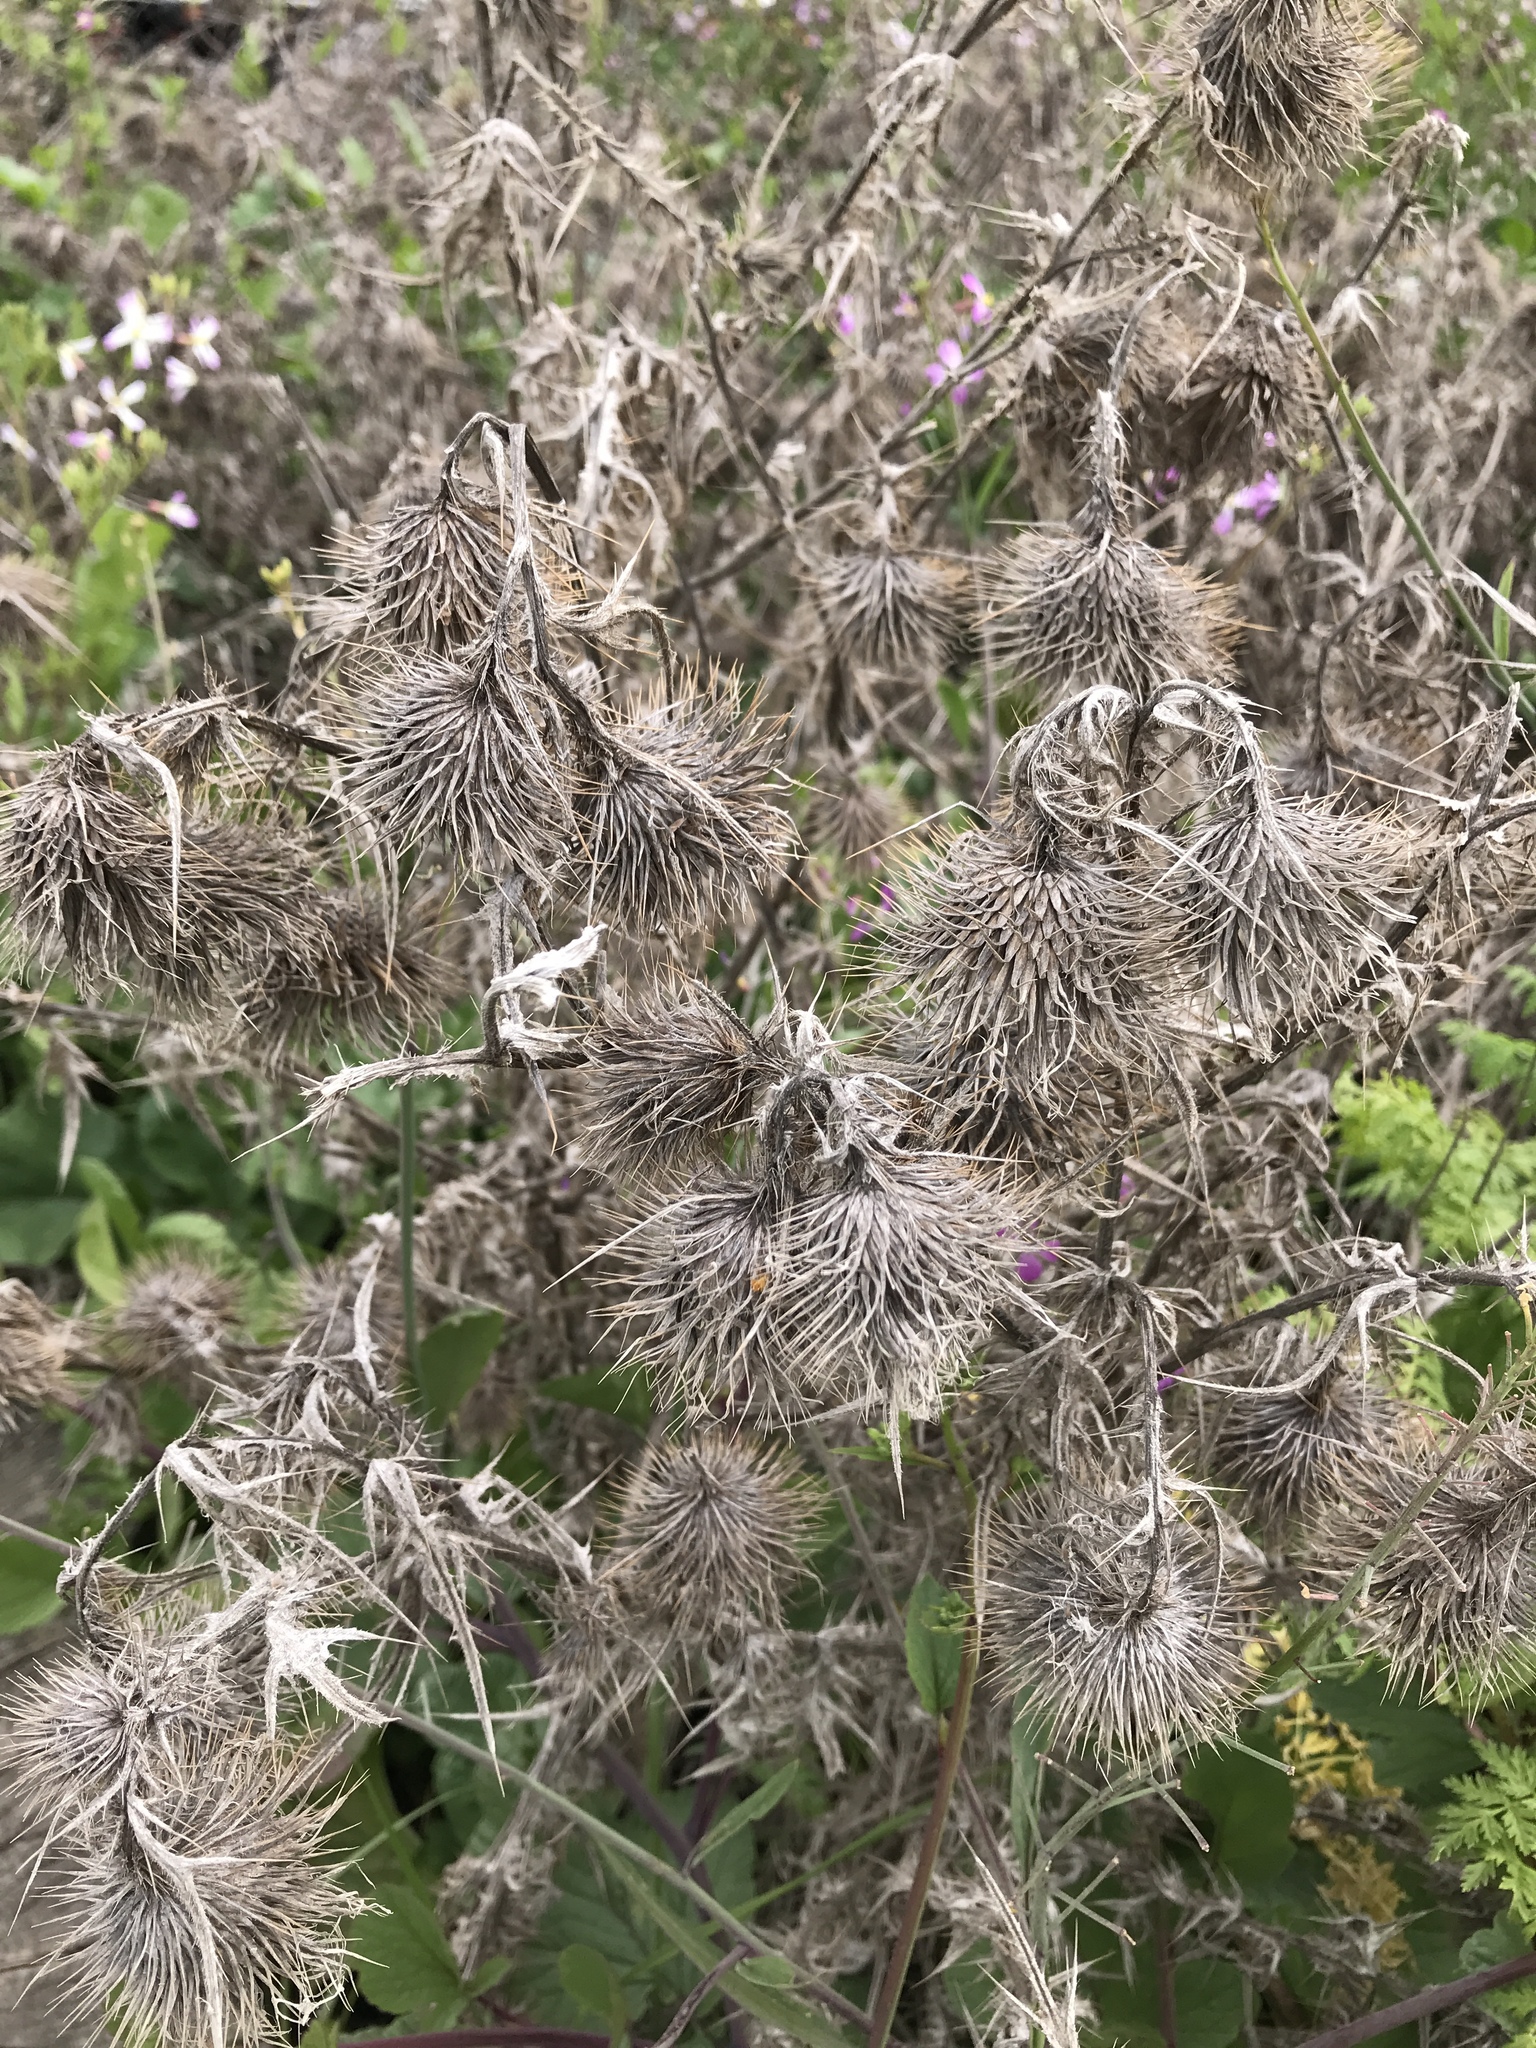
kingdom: Plantae
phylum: Tracheophyta
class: Magnoliopsida
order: Asterales
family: Asteraceae
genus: Cirsium
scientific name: Cirsium vulgare
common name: Bull thistle
